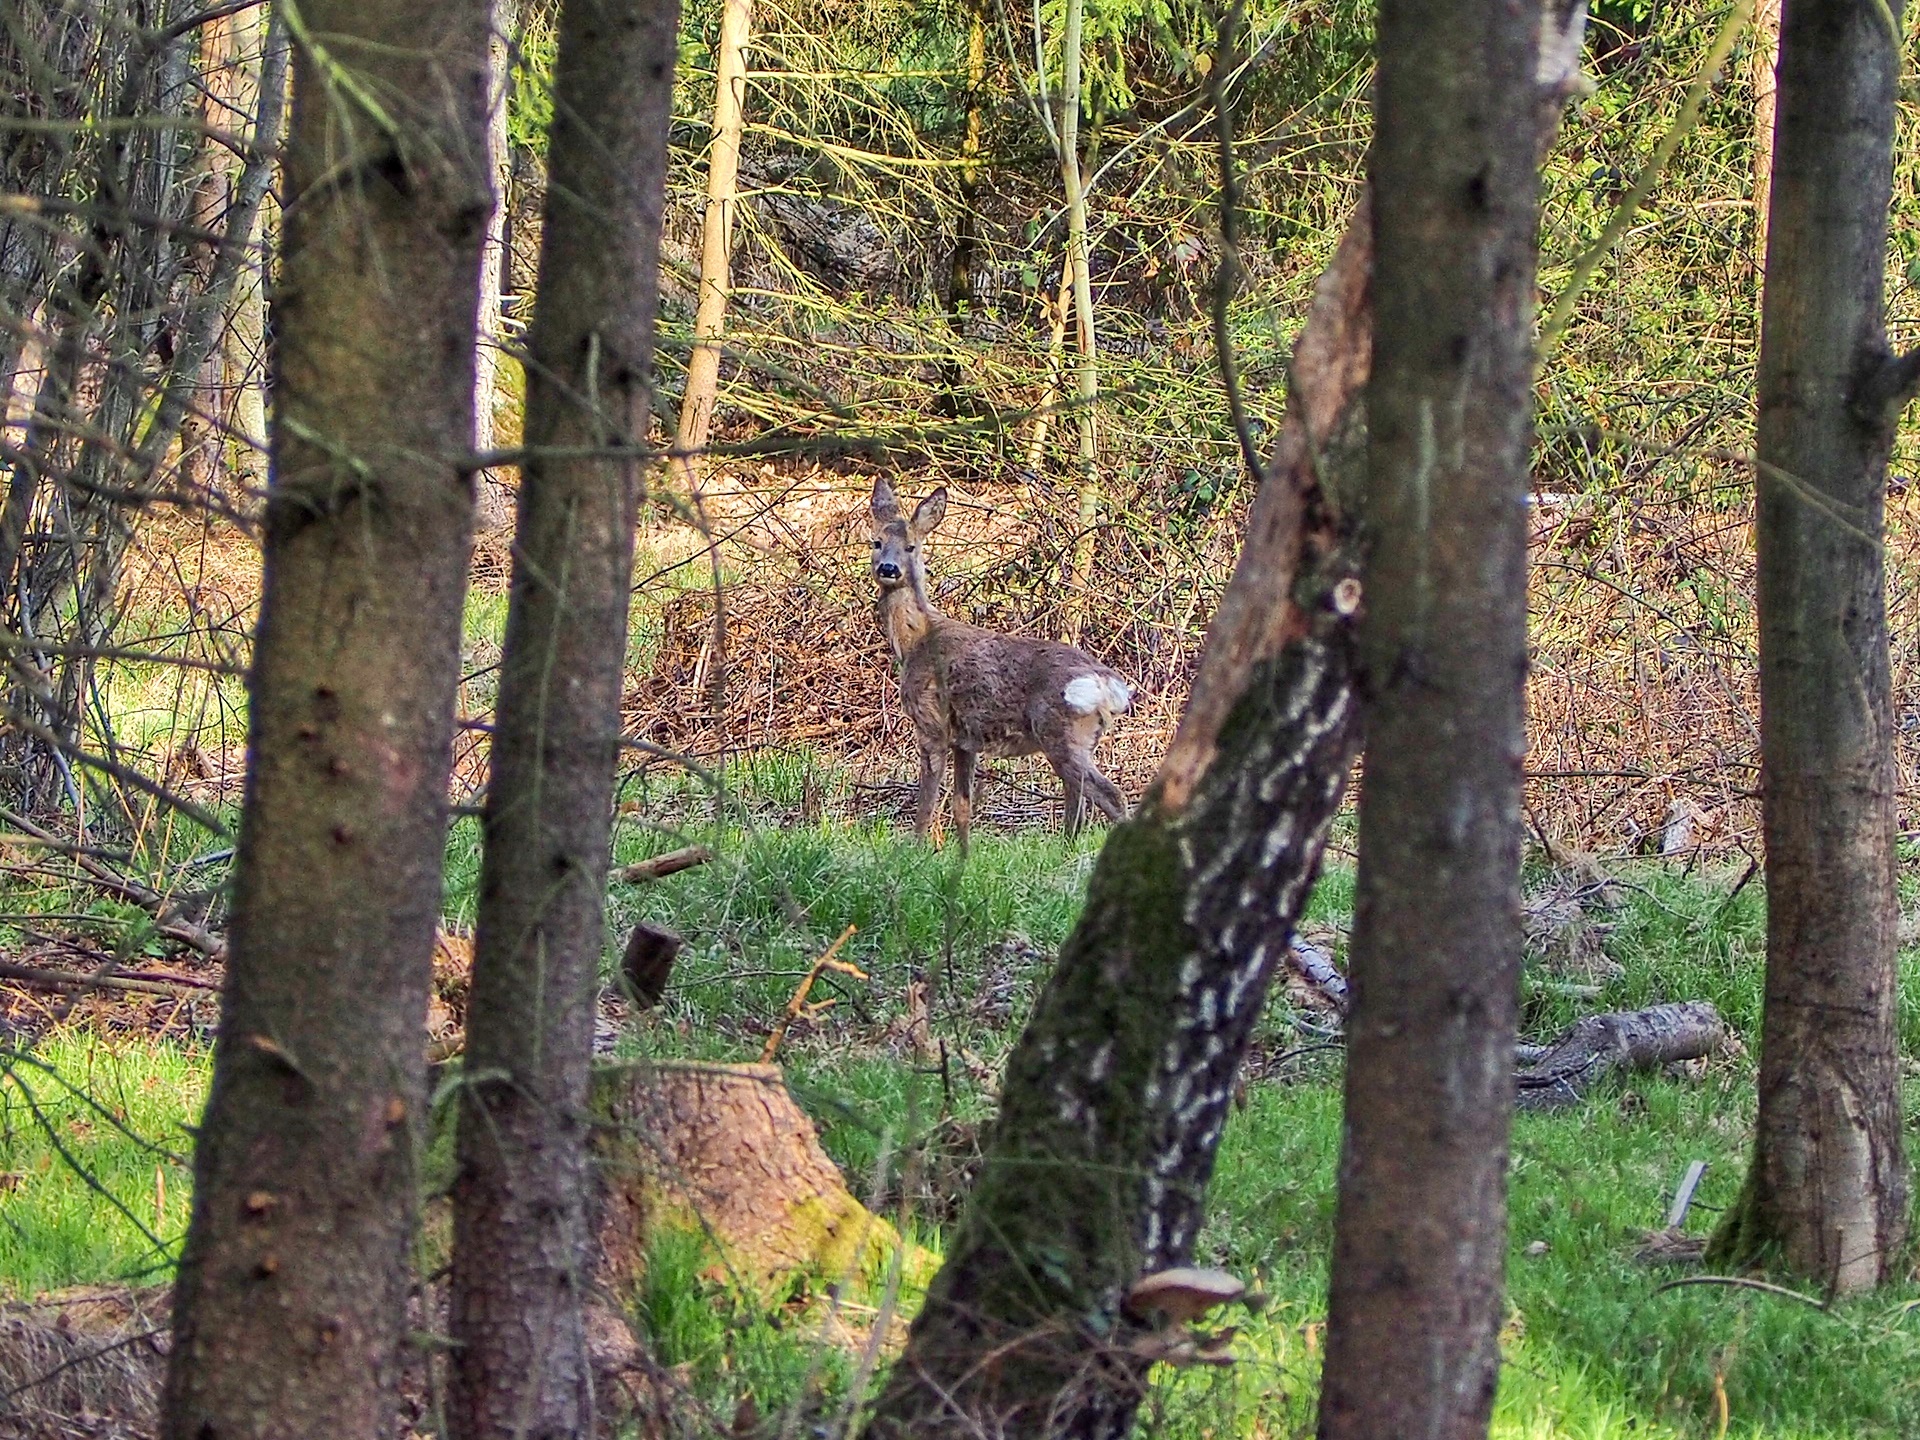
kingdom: Animalia
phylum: Chordata
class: Mammalia
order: Artiodactyla
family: Cervidae
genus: Capreolus
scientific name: Capreolus capreolus
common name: Western roe deer
